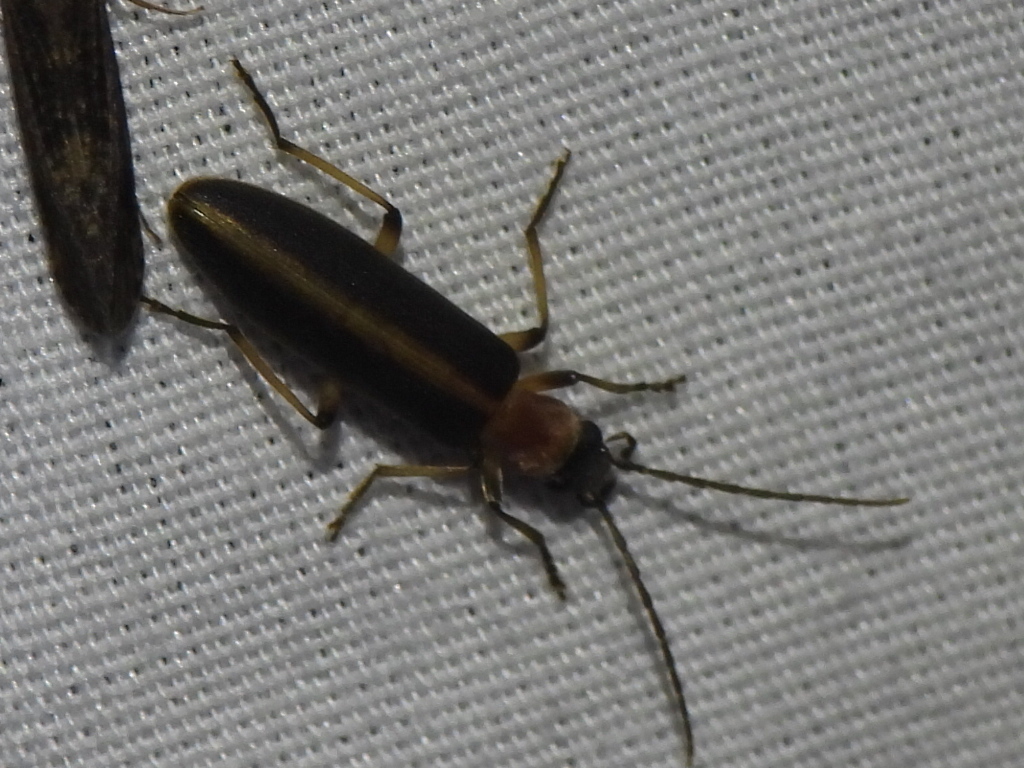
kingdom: Animalia
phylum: Arthropoda
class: Insecta
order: Coleoptera
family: Oedemeridae
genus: Oxycopis
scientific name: Oxycopis mimetica
